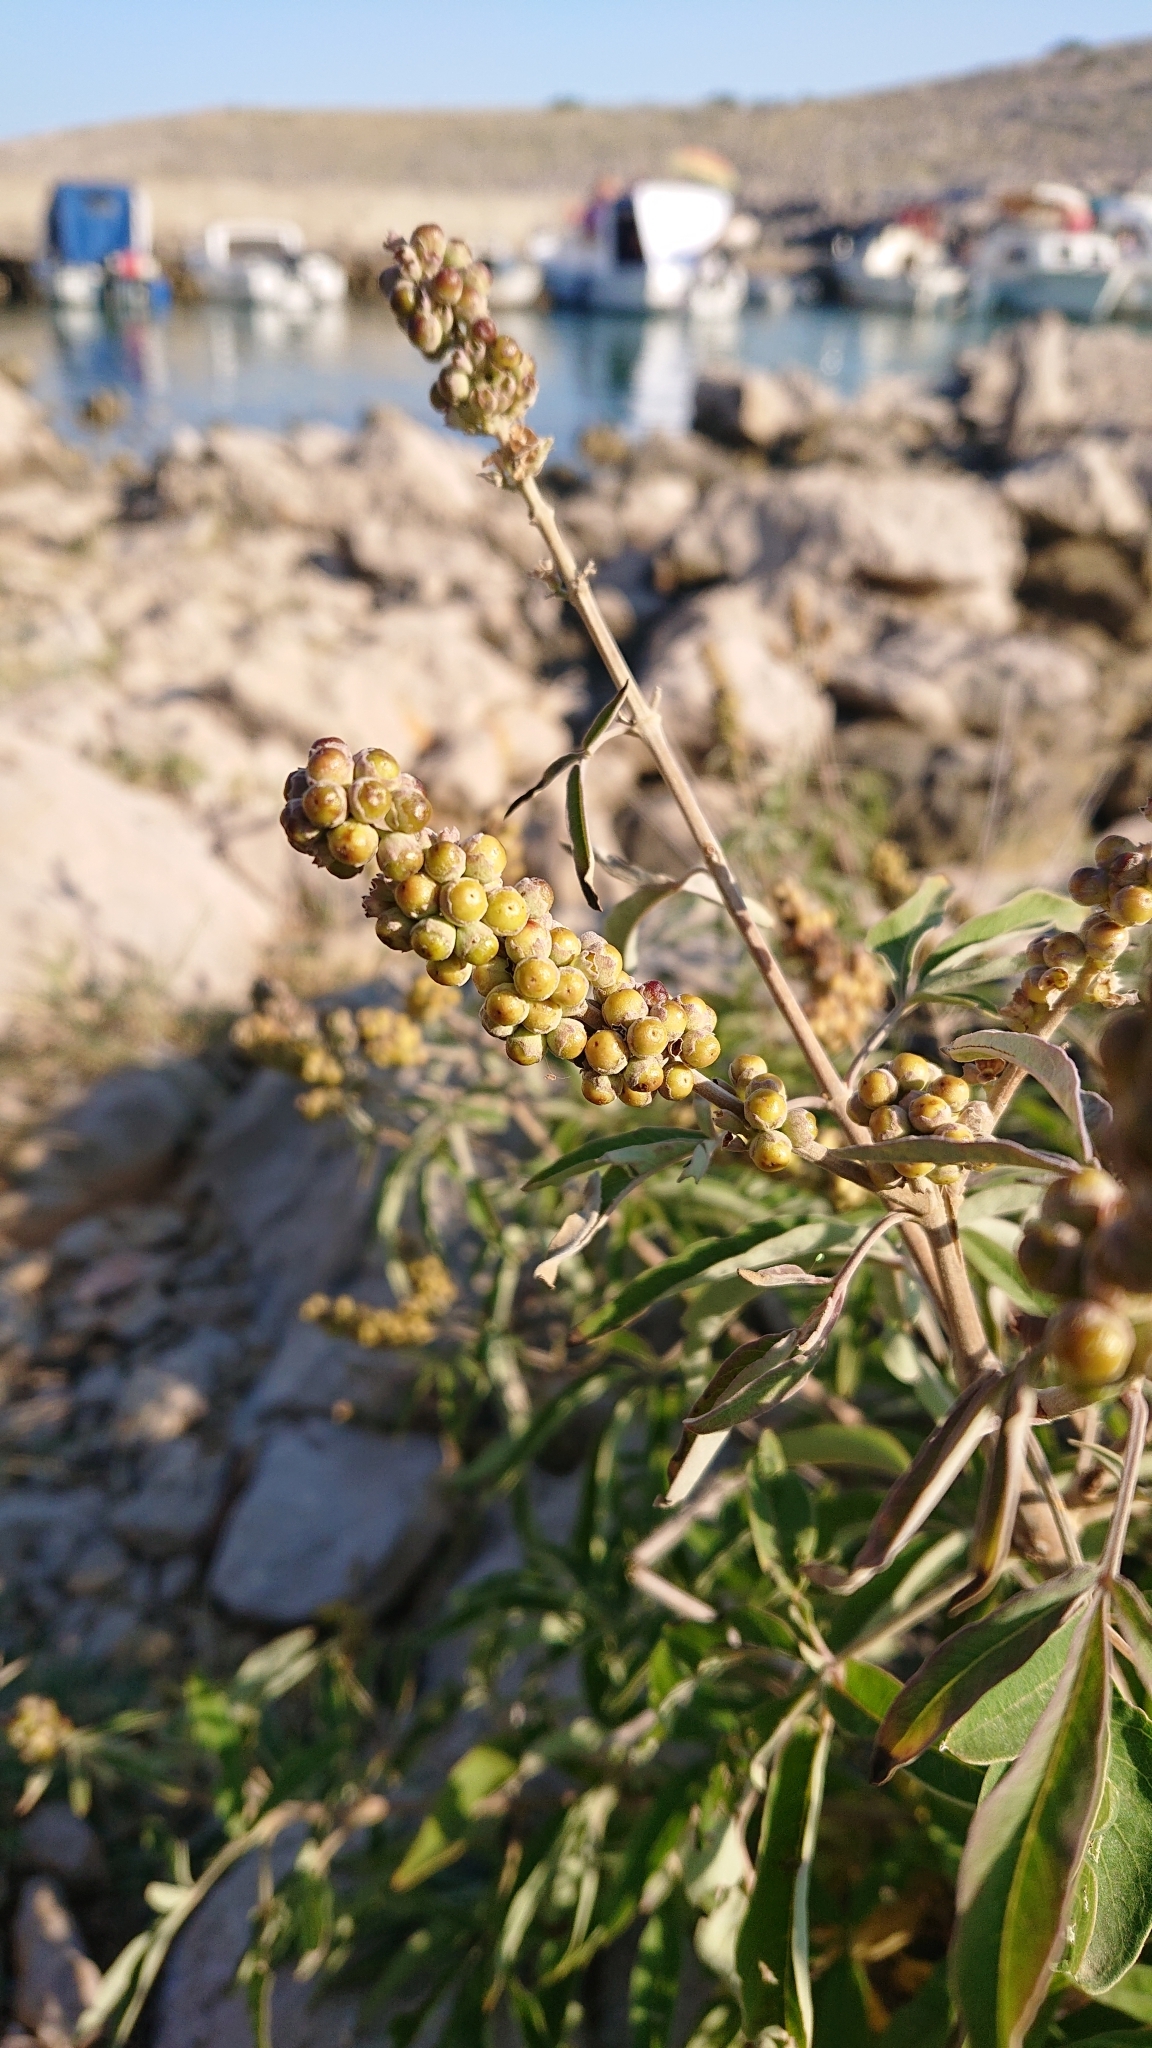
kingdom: Plantae
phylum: Tracheophyta
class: Magnoliopsida
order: Lamiales
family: Lamiaceae
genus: Vitex
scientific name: Vitex agnus-castus
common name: Chasteberry
